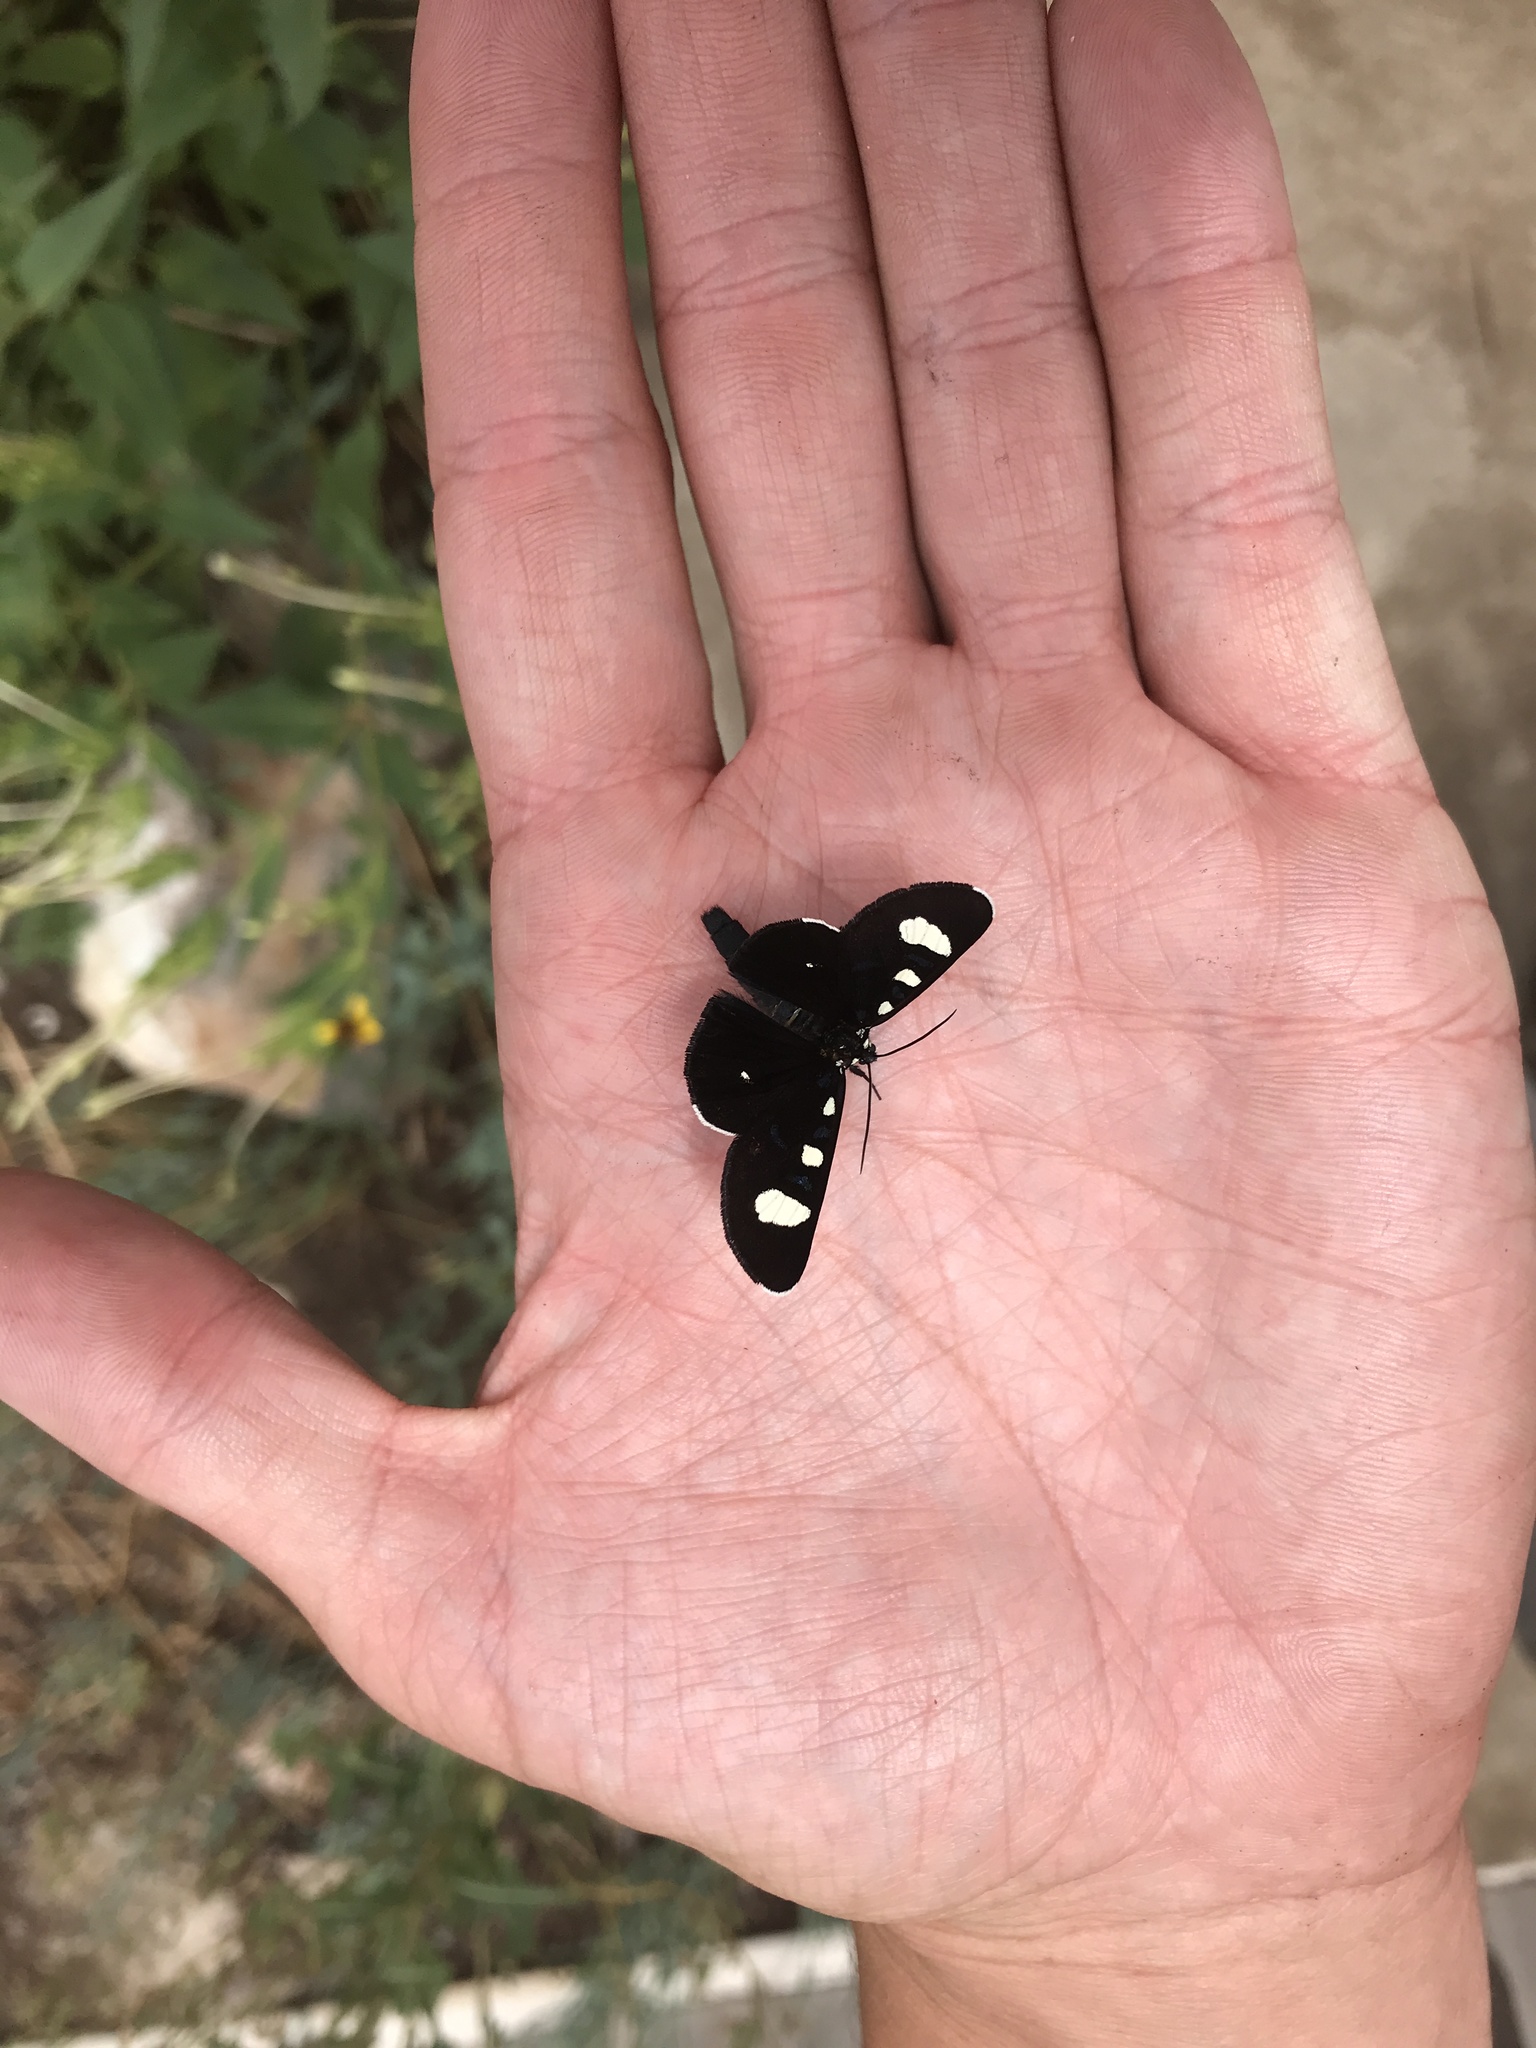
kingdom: Animalia
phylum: Arthropoda
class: Insecta
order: Lepidoptera
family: Noctuidae
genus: Alypiodes
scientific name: Alypiodes bimaculata
